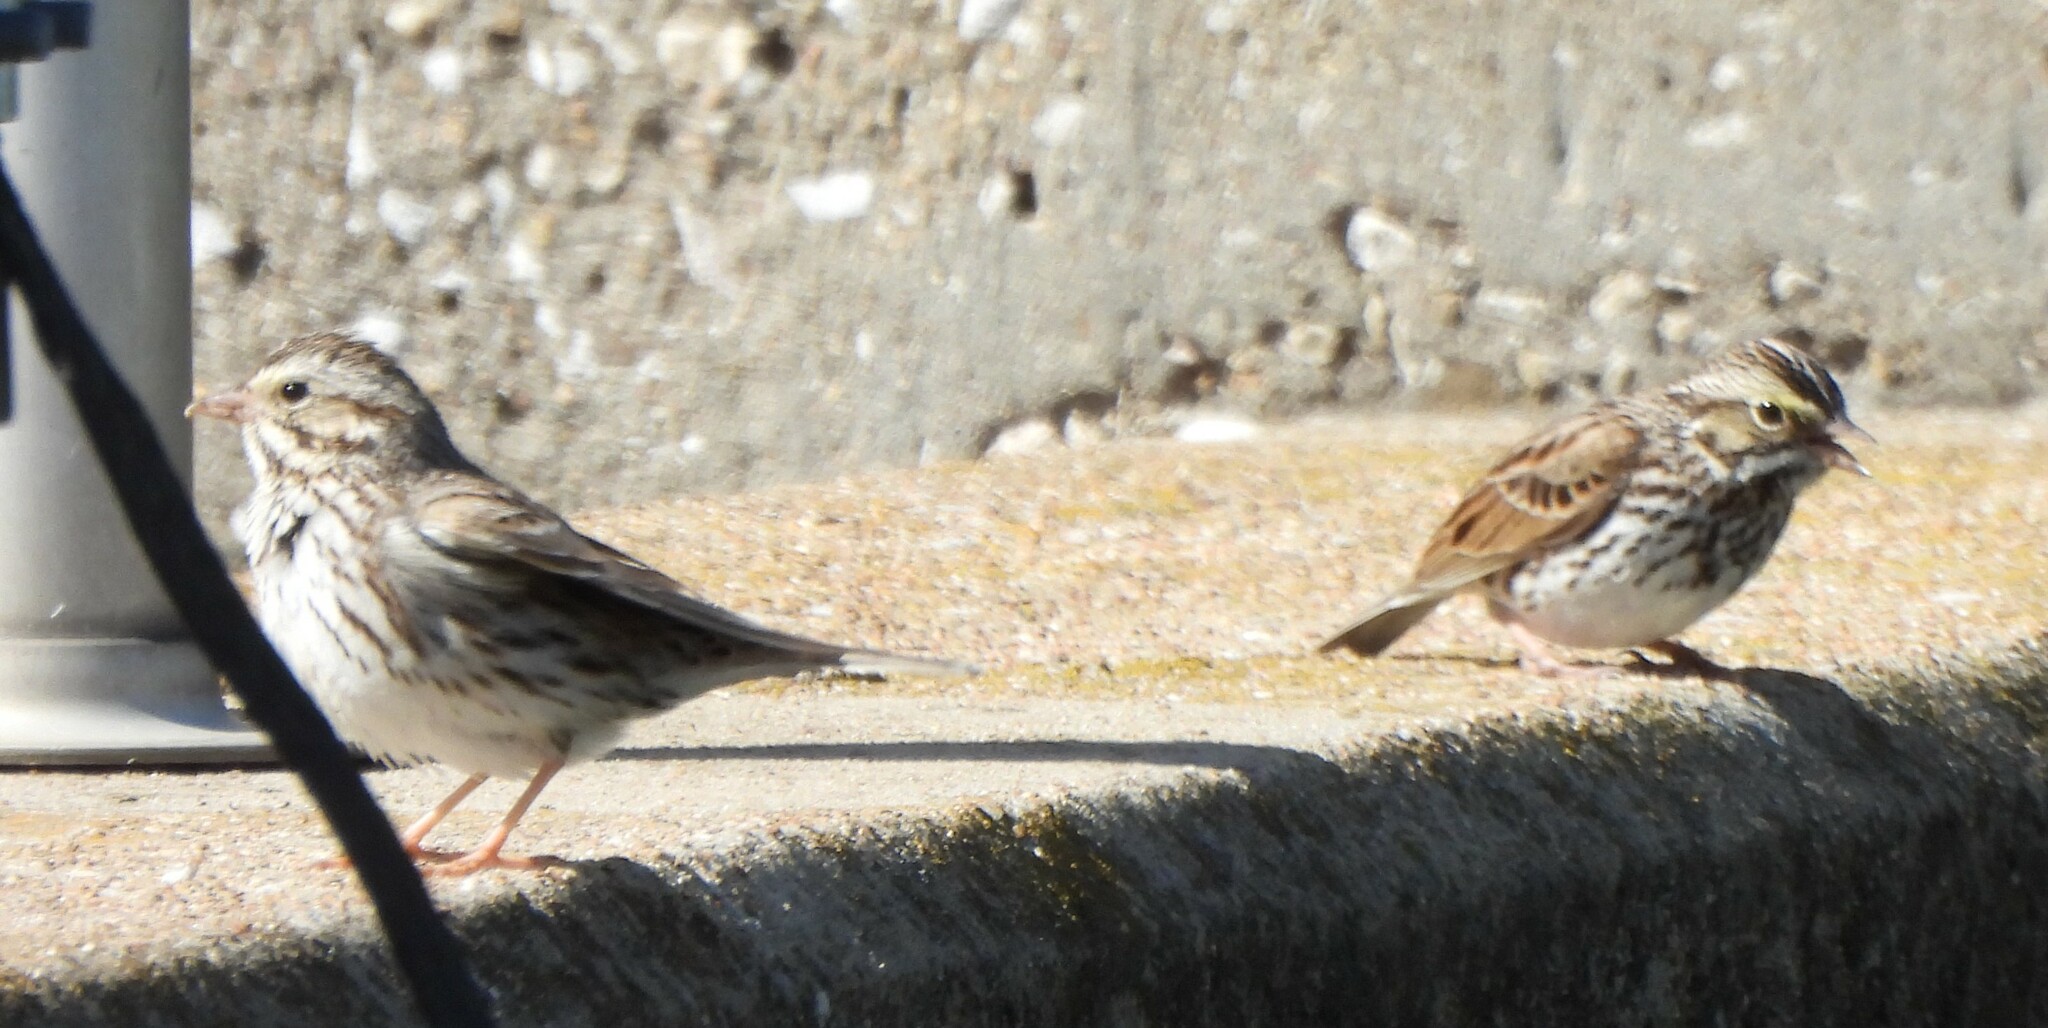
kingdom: Animalia
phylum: Chordata
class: Aves
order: Passeriformes
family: Passerellidae
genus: Passerculus
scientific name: Passerculus sandwichensis
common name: Savannah sparrow
